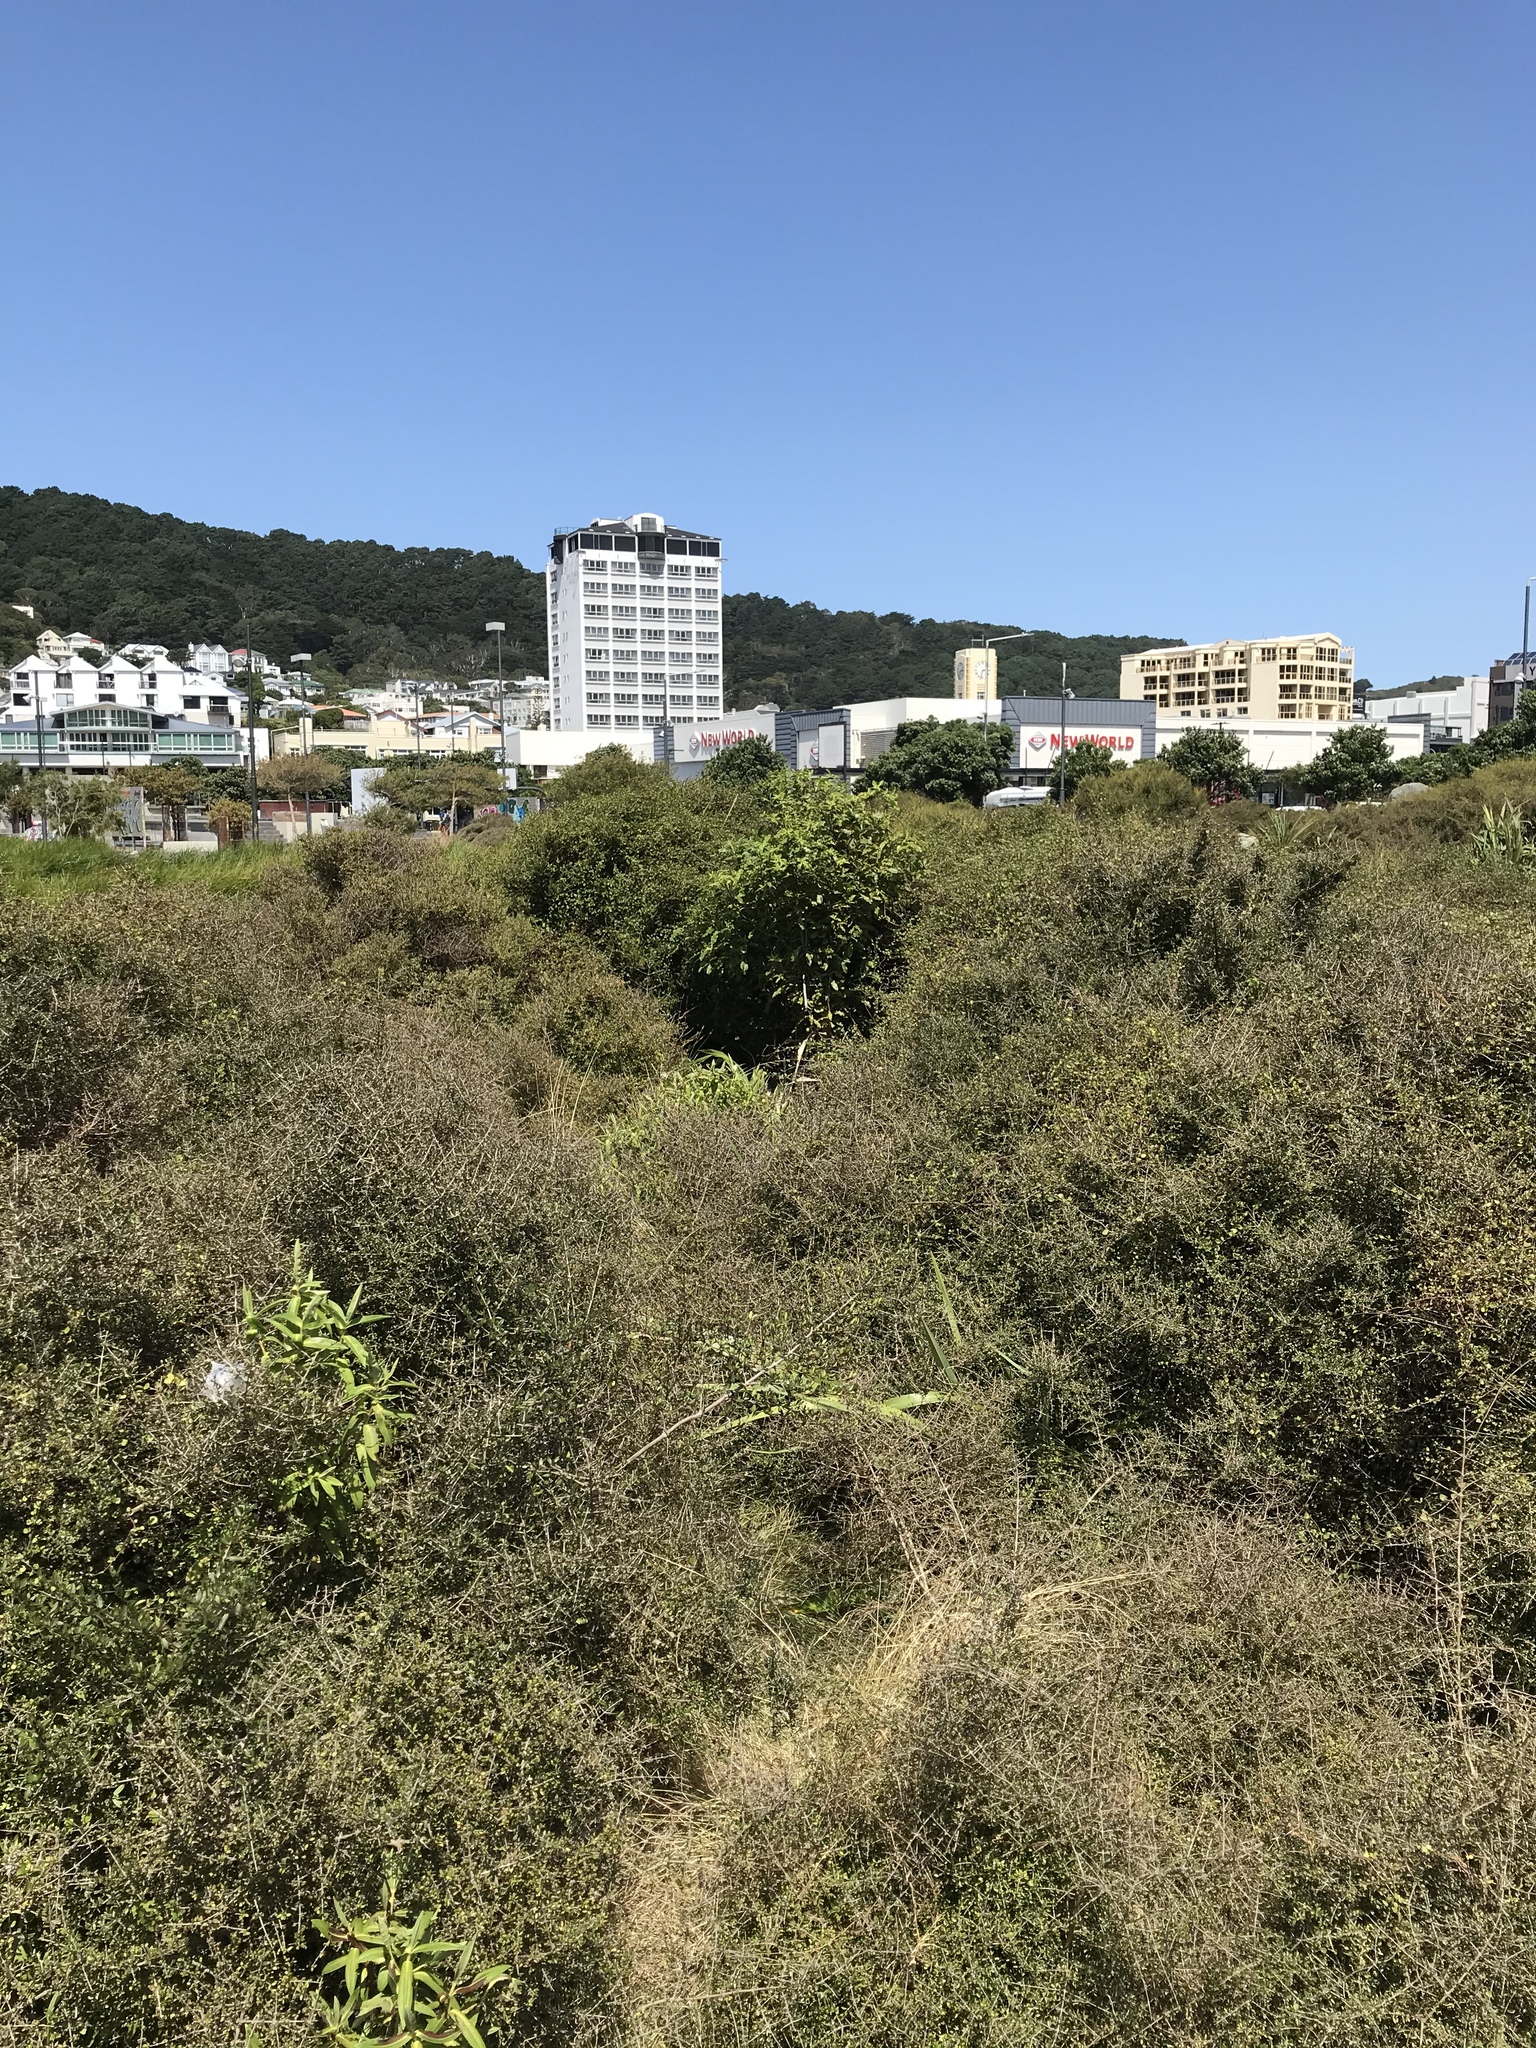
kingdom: Plantae
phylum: Tracheophyta
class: Magnoliopsida
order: Apiales
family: Pittosporaceae
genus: Pittosporum
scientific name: Pittosporum eugenioides
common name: Lemonwood
